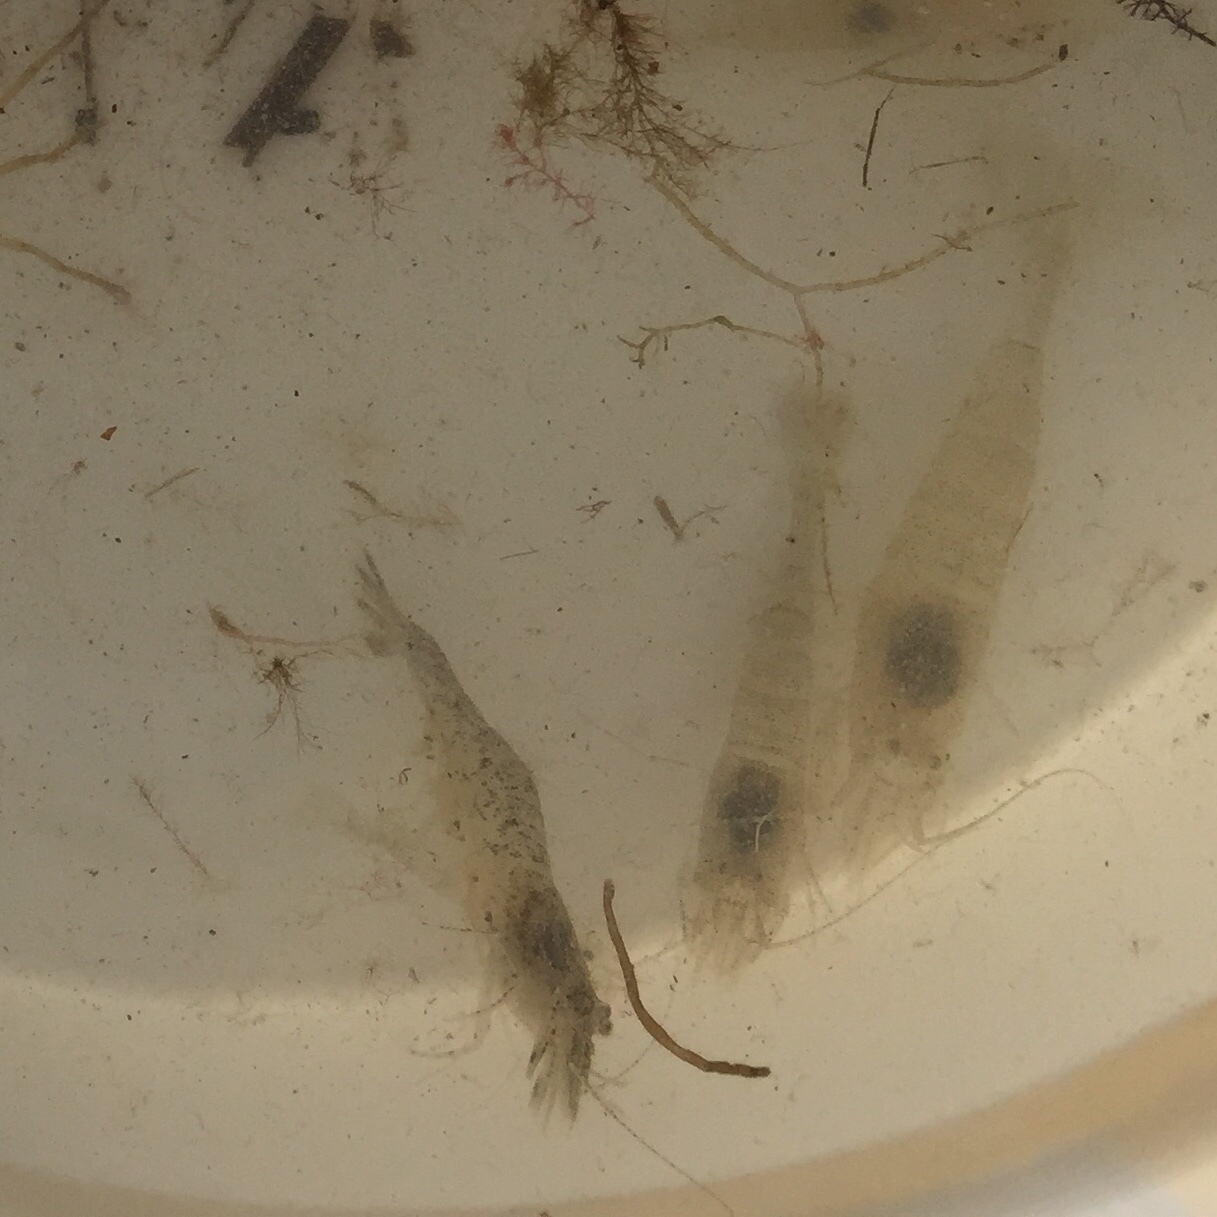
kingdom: Animalia
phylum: Arthropoda
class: Malacostraca
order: Decapoda
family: Crangonidae
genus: Crangon
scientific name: Crangon crangon
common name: Brown shrimp
